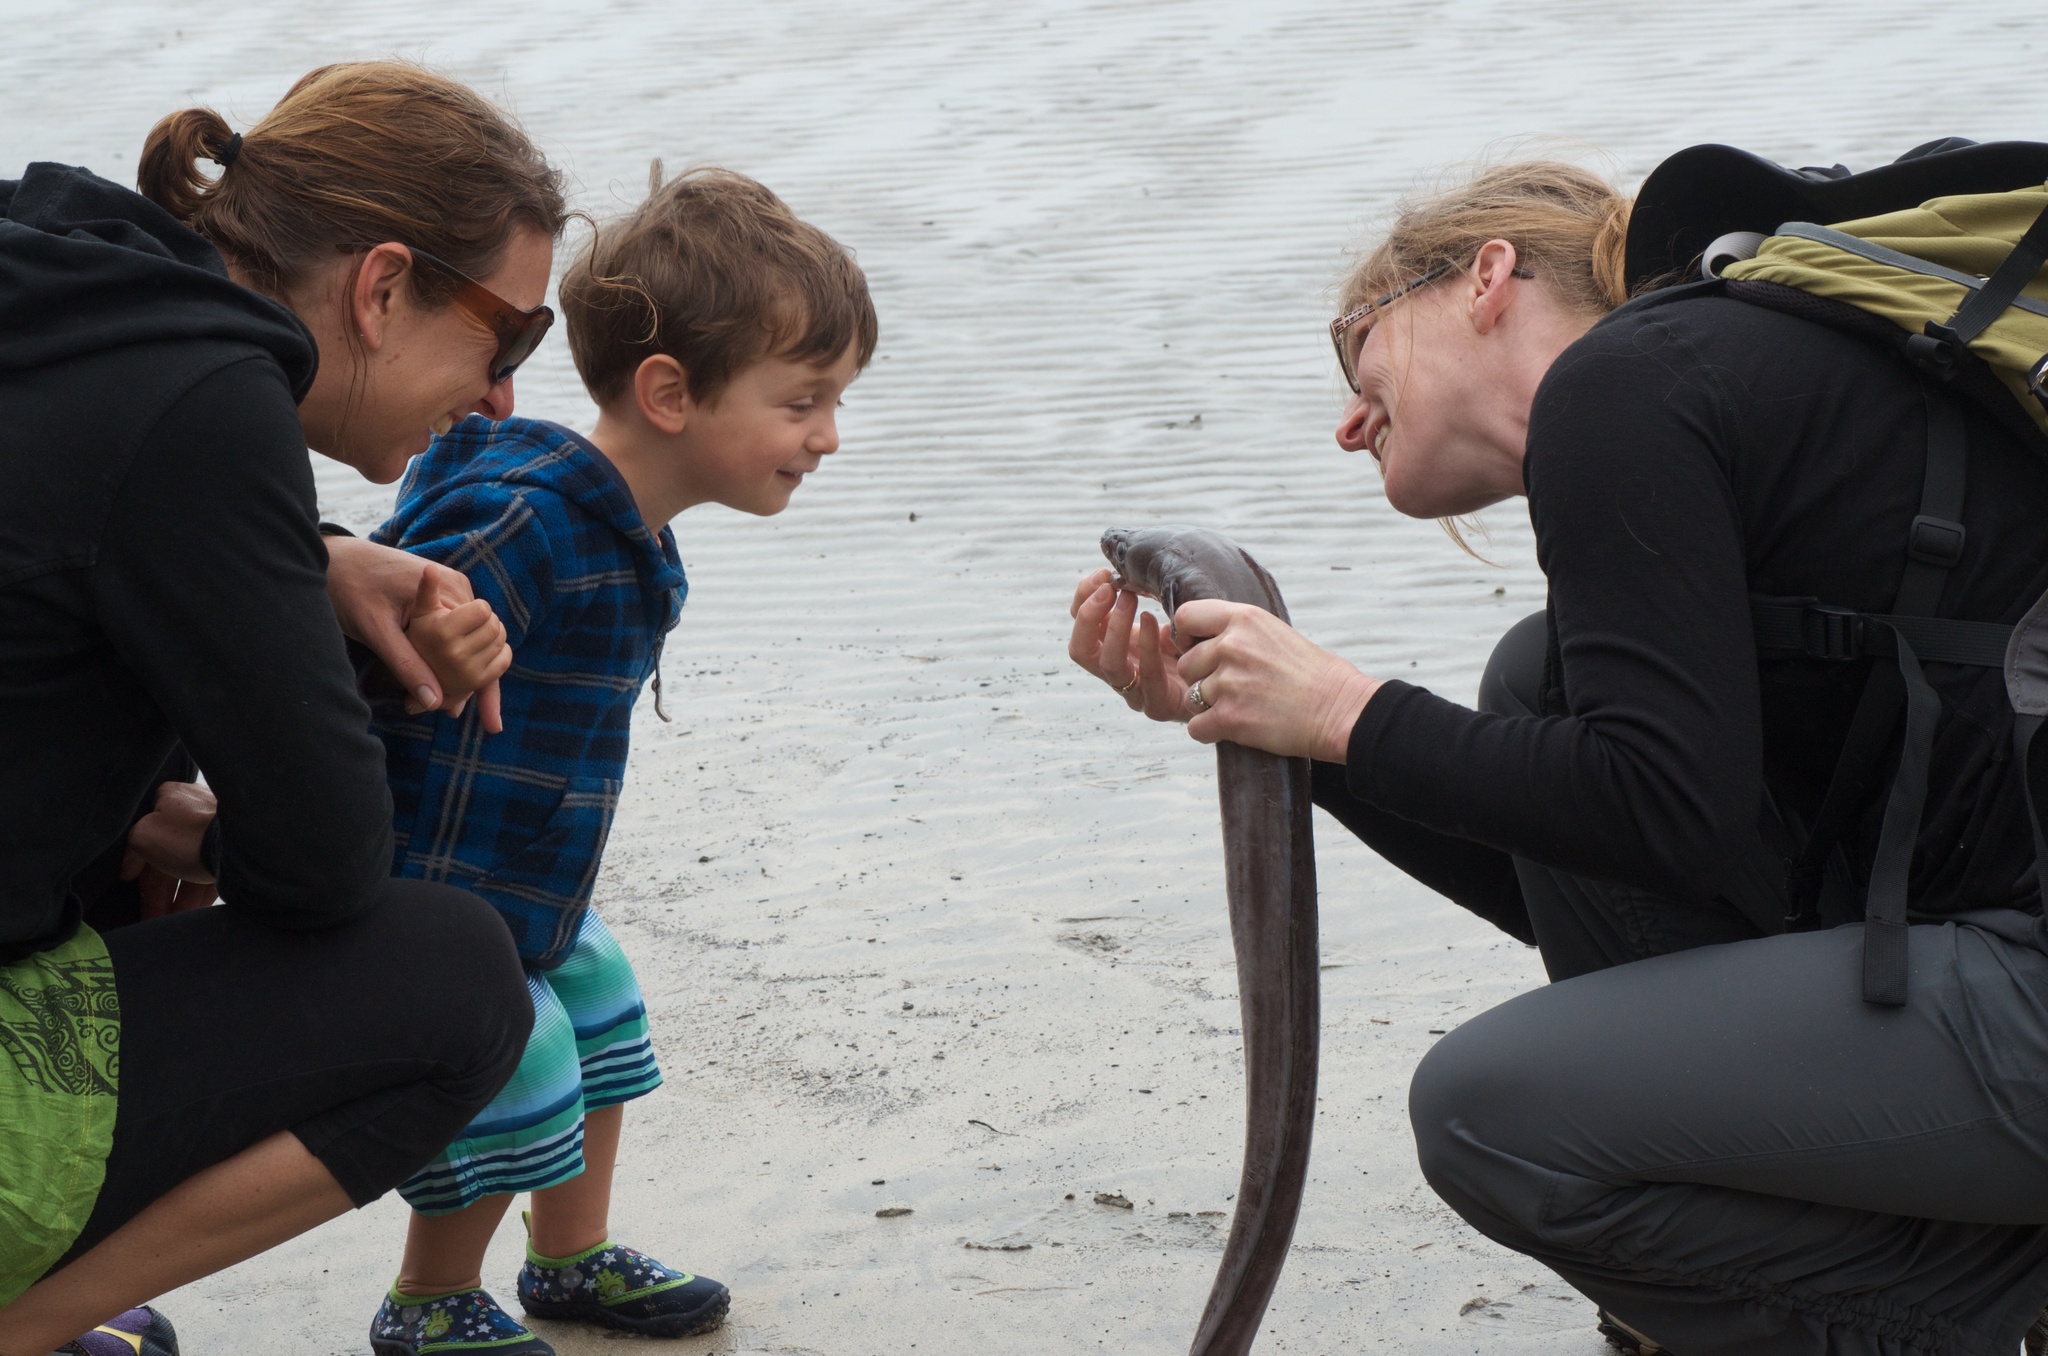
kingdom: Animalia
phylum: Chordata
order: Anguilliformes
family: Congridae
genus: Conger
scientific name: Conger verreauxi
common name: Conger eel
